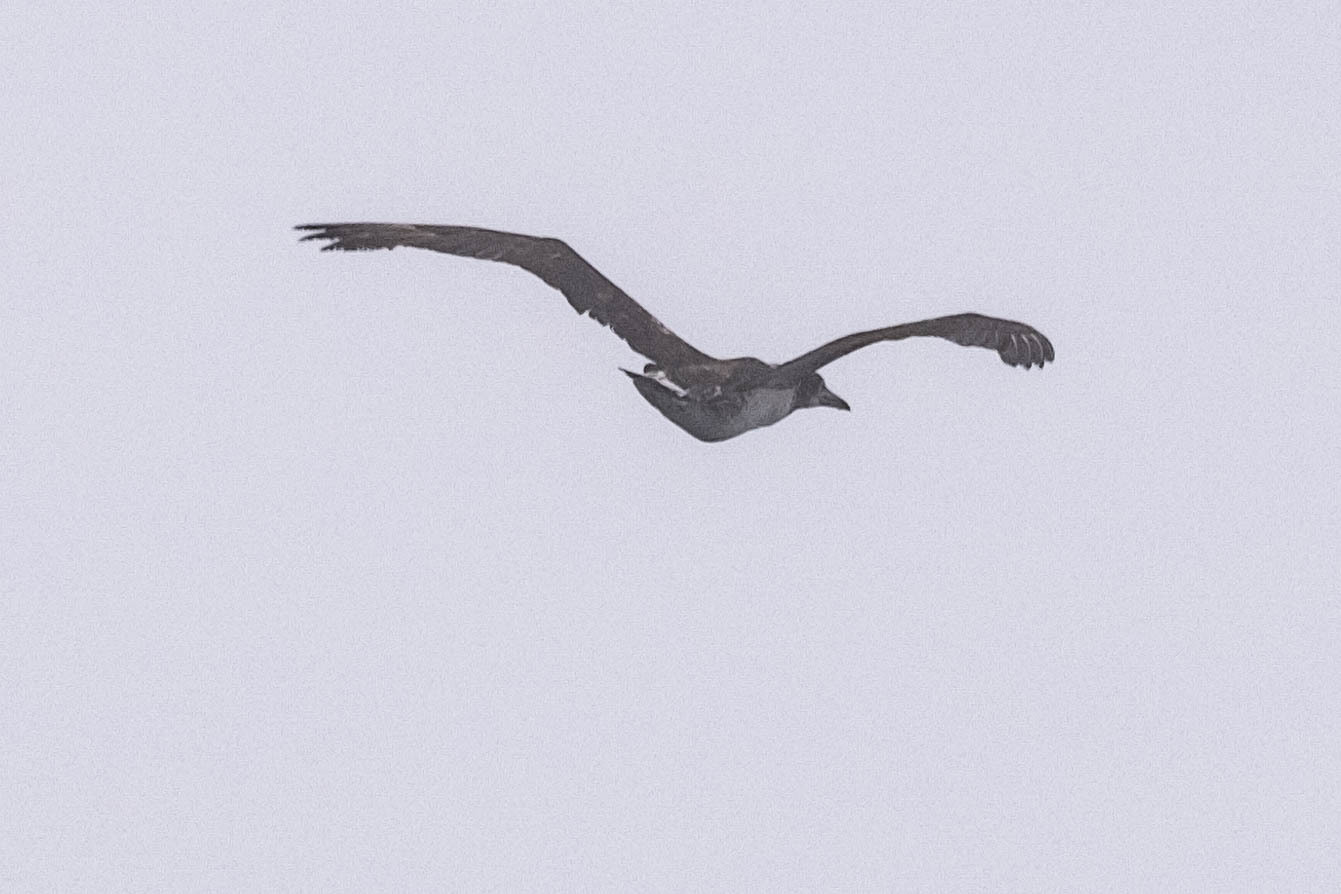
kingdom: Animalia
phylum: Chordata
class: Aves
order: Suliformes
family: Sulidae
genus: Morus
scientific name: Morus bassanus
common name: Northern gannet
